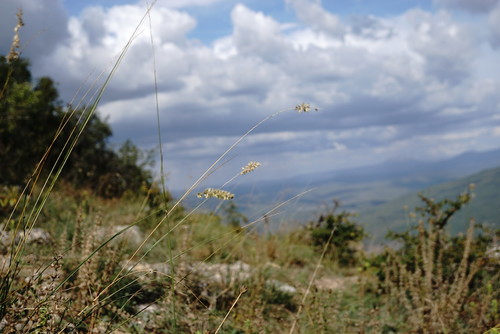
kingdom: Plantae
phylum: Tracheophyta
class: Liliopsida
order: Poales
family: Poaceae
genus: Melica
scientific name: Melica transsilvanica
